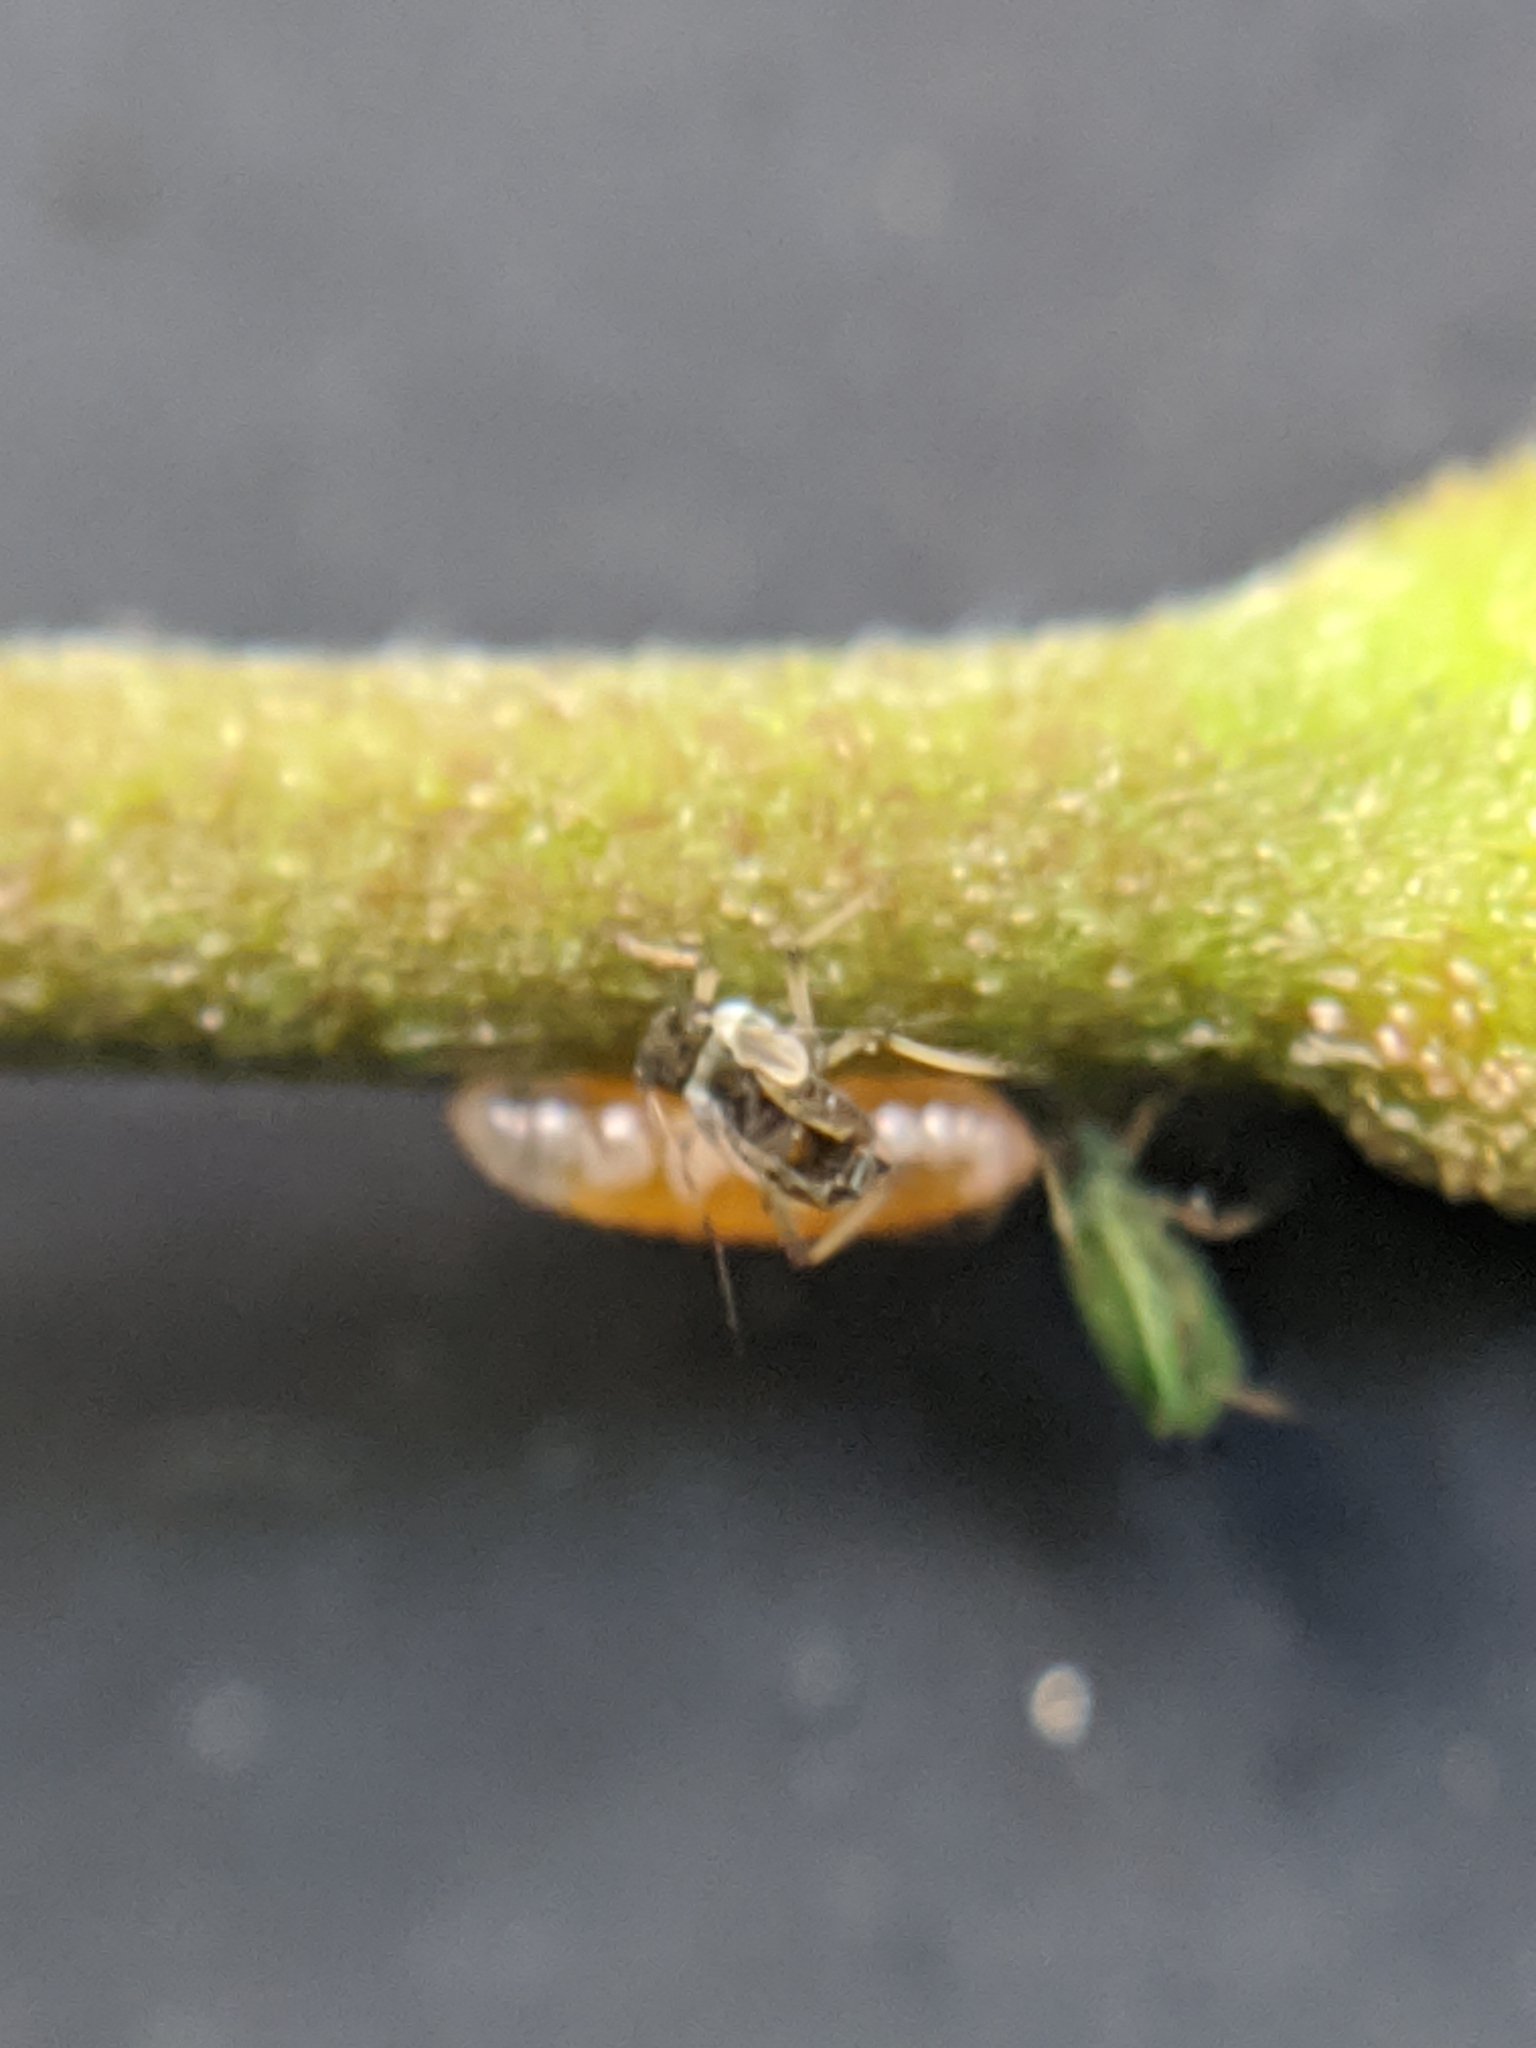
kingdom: Animalia
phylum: Arthropoda
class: Insecta
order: Diptera
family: Cecidomyiidae
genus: Aphidoletes
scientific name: Aphidoletes aphidimyza
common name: Gall midge
